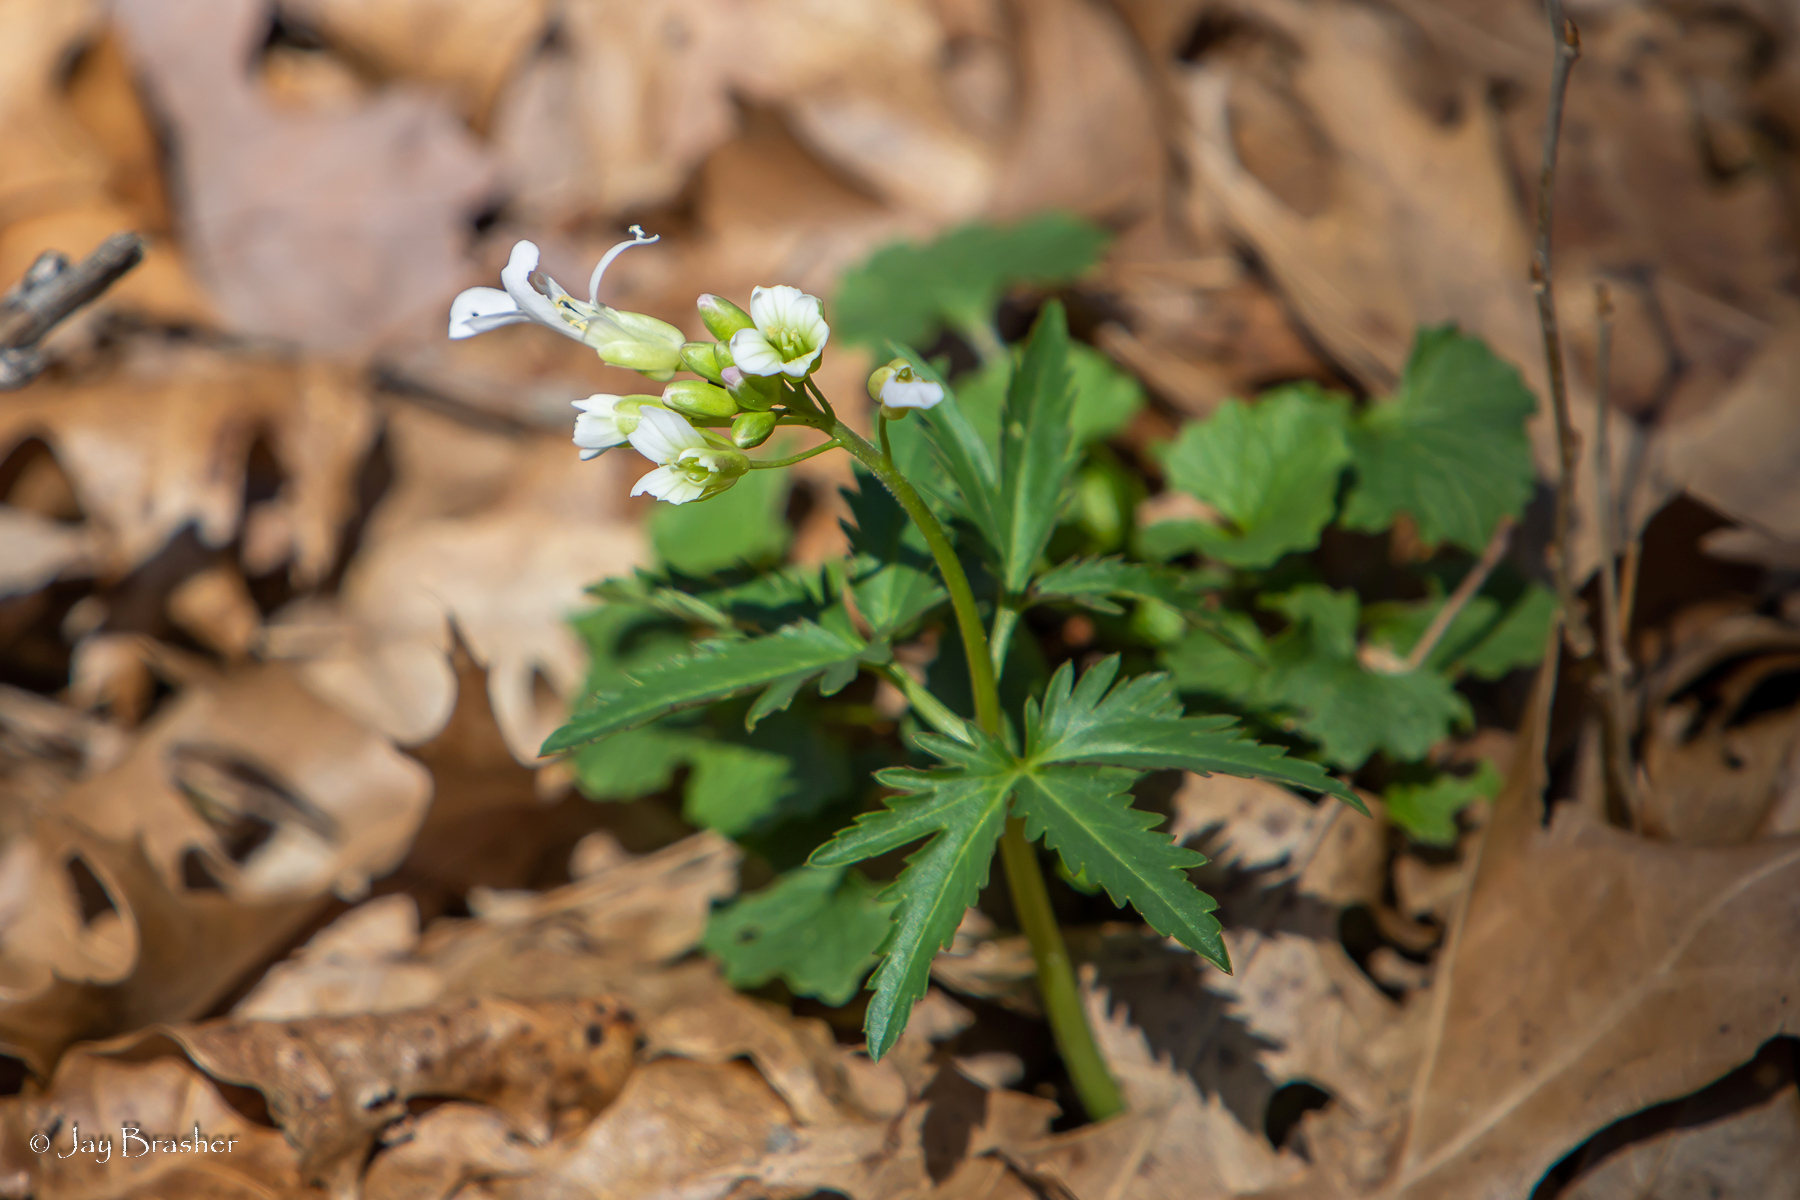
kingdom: Plantae
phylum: Tracheophyta
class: Magnoliopsida
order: Brassicales
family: Brassicaceae
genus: Cardamine
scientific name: Cardamine concatenata
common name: Cut-leaf toothcup
